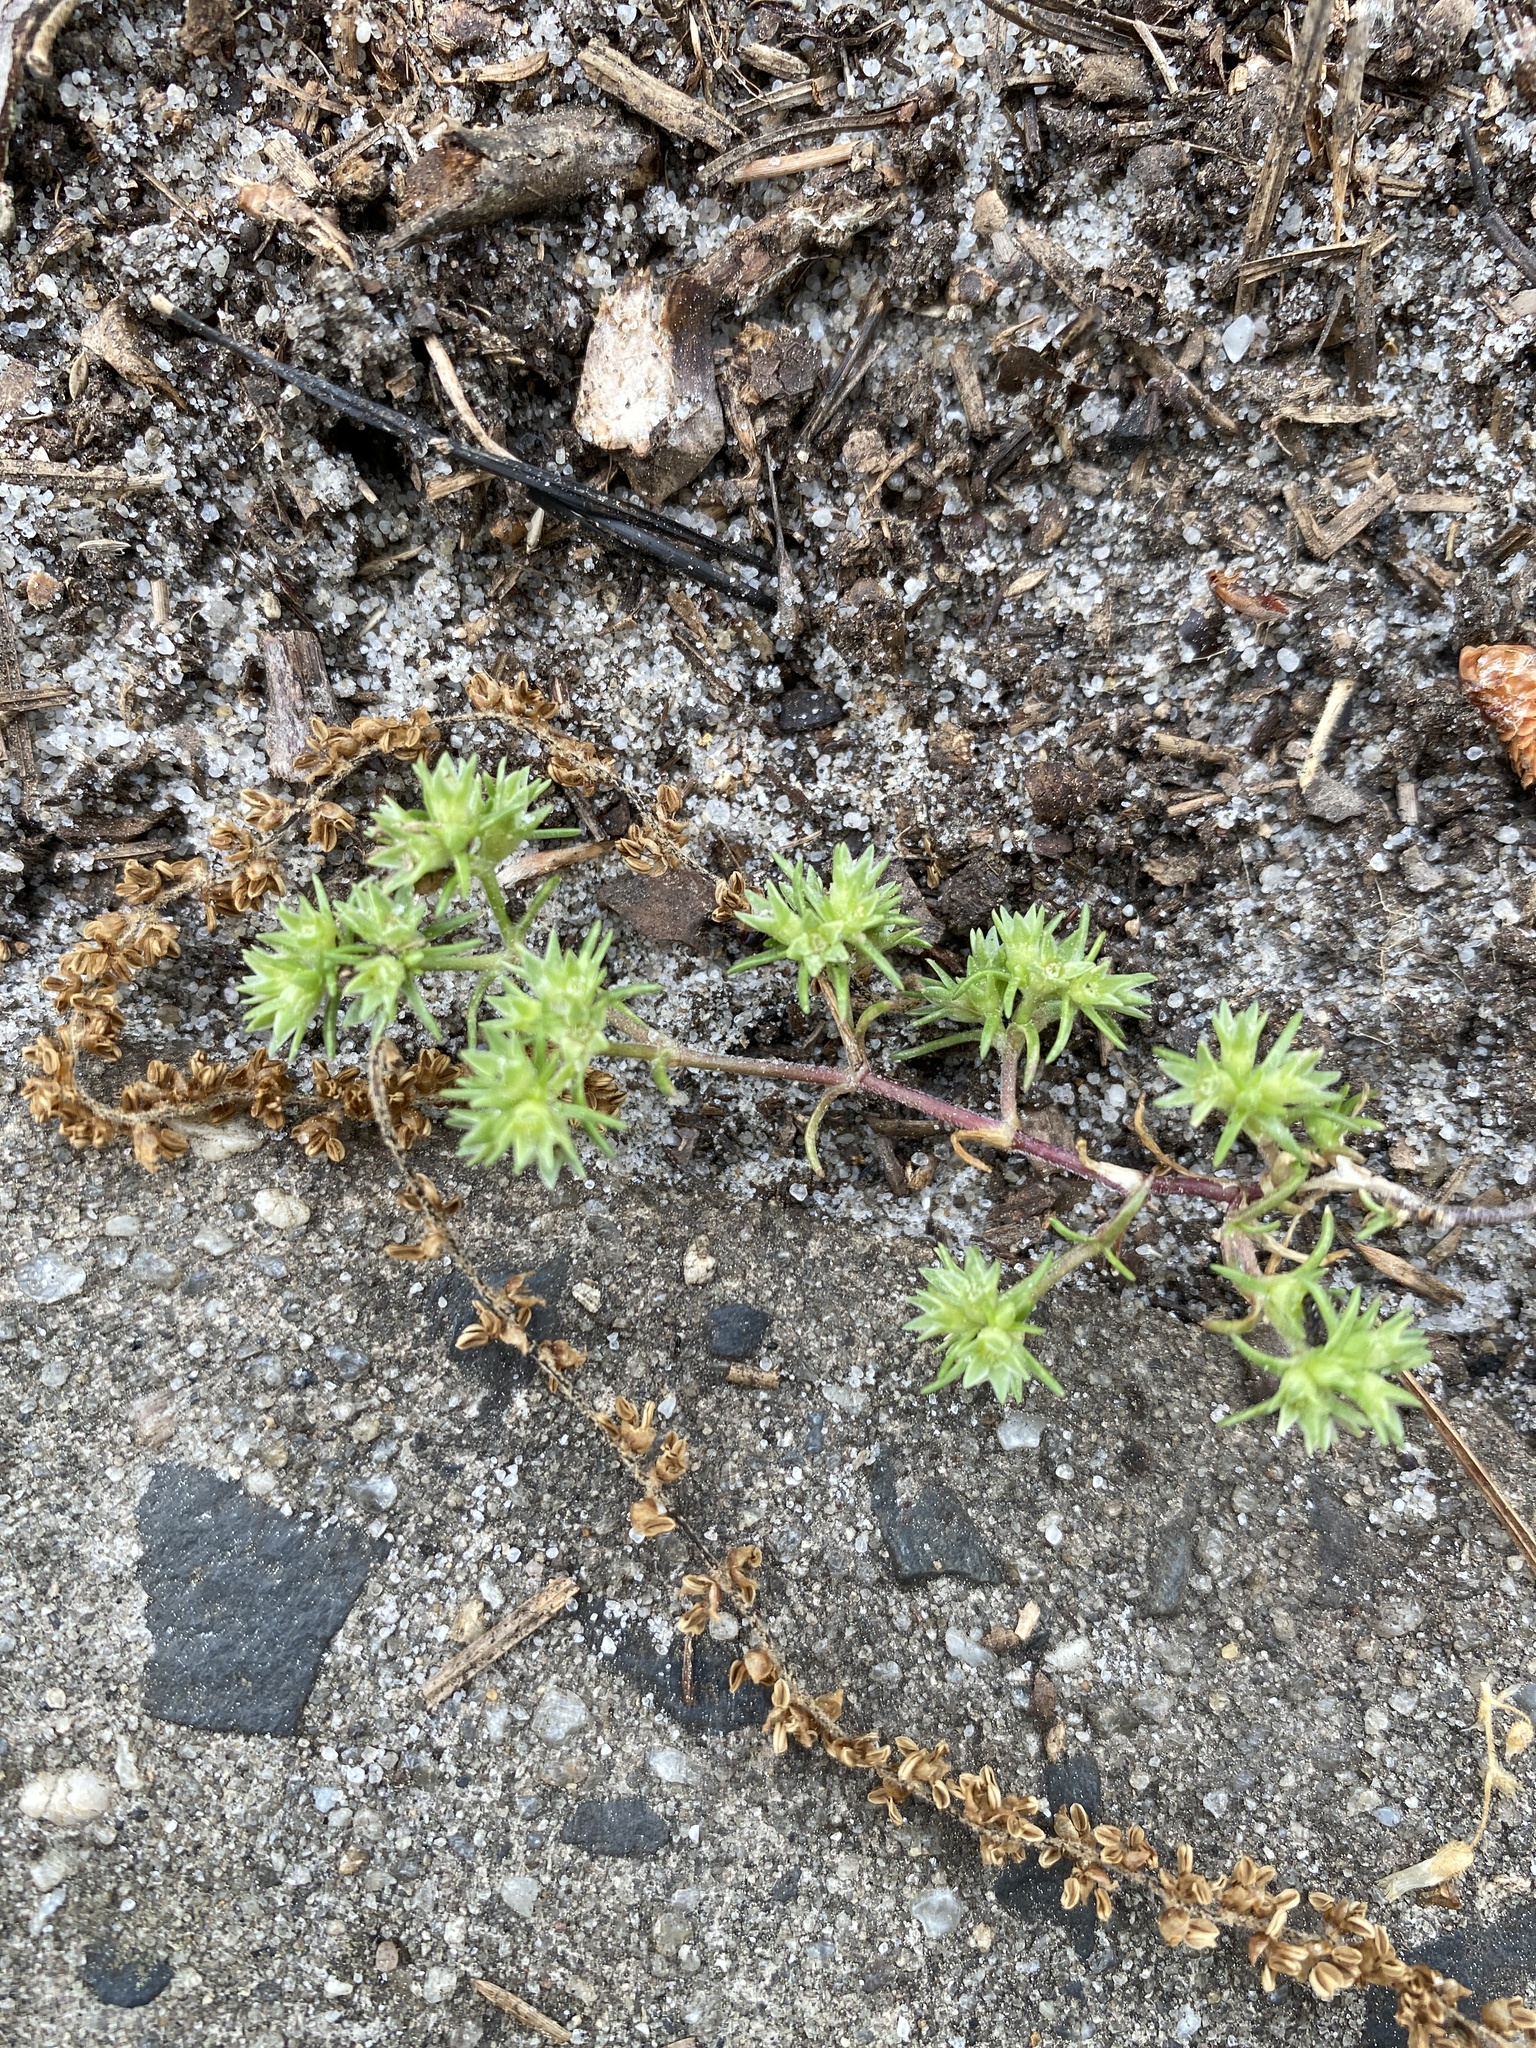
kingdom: Plantae
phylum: Tracheophyta
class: Magnoliopsida
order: Caryophyllales
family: Caryophyllaceae
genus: Scleranthus
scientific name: Scleranthus annuus
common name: Annual knawel
